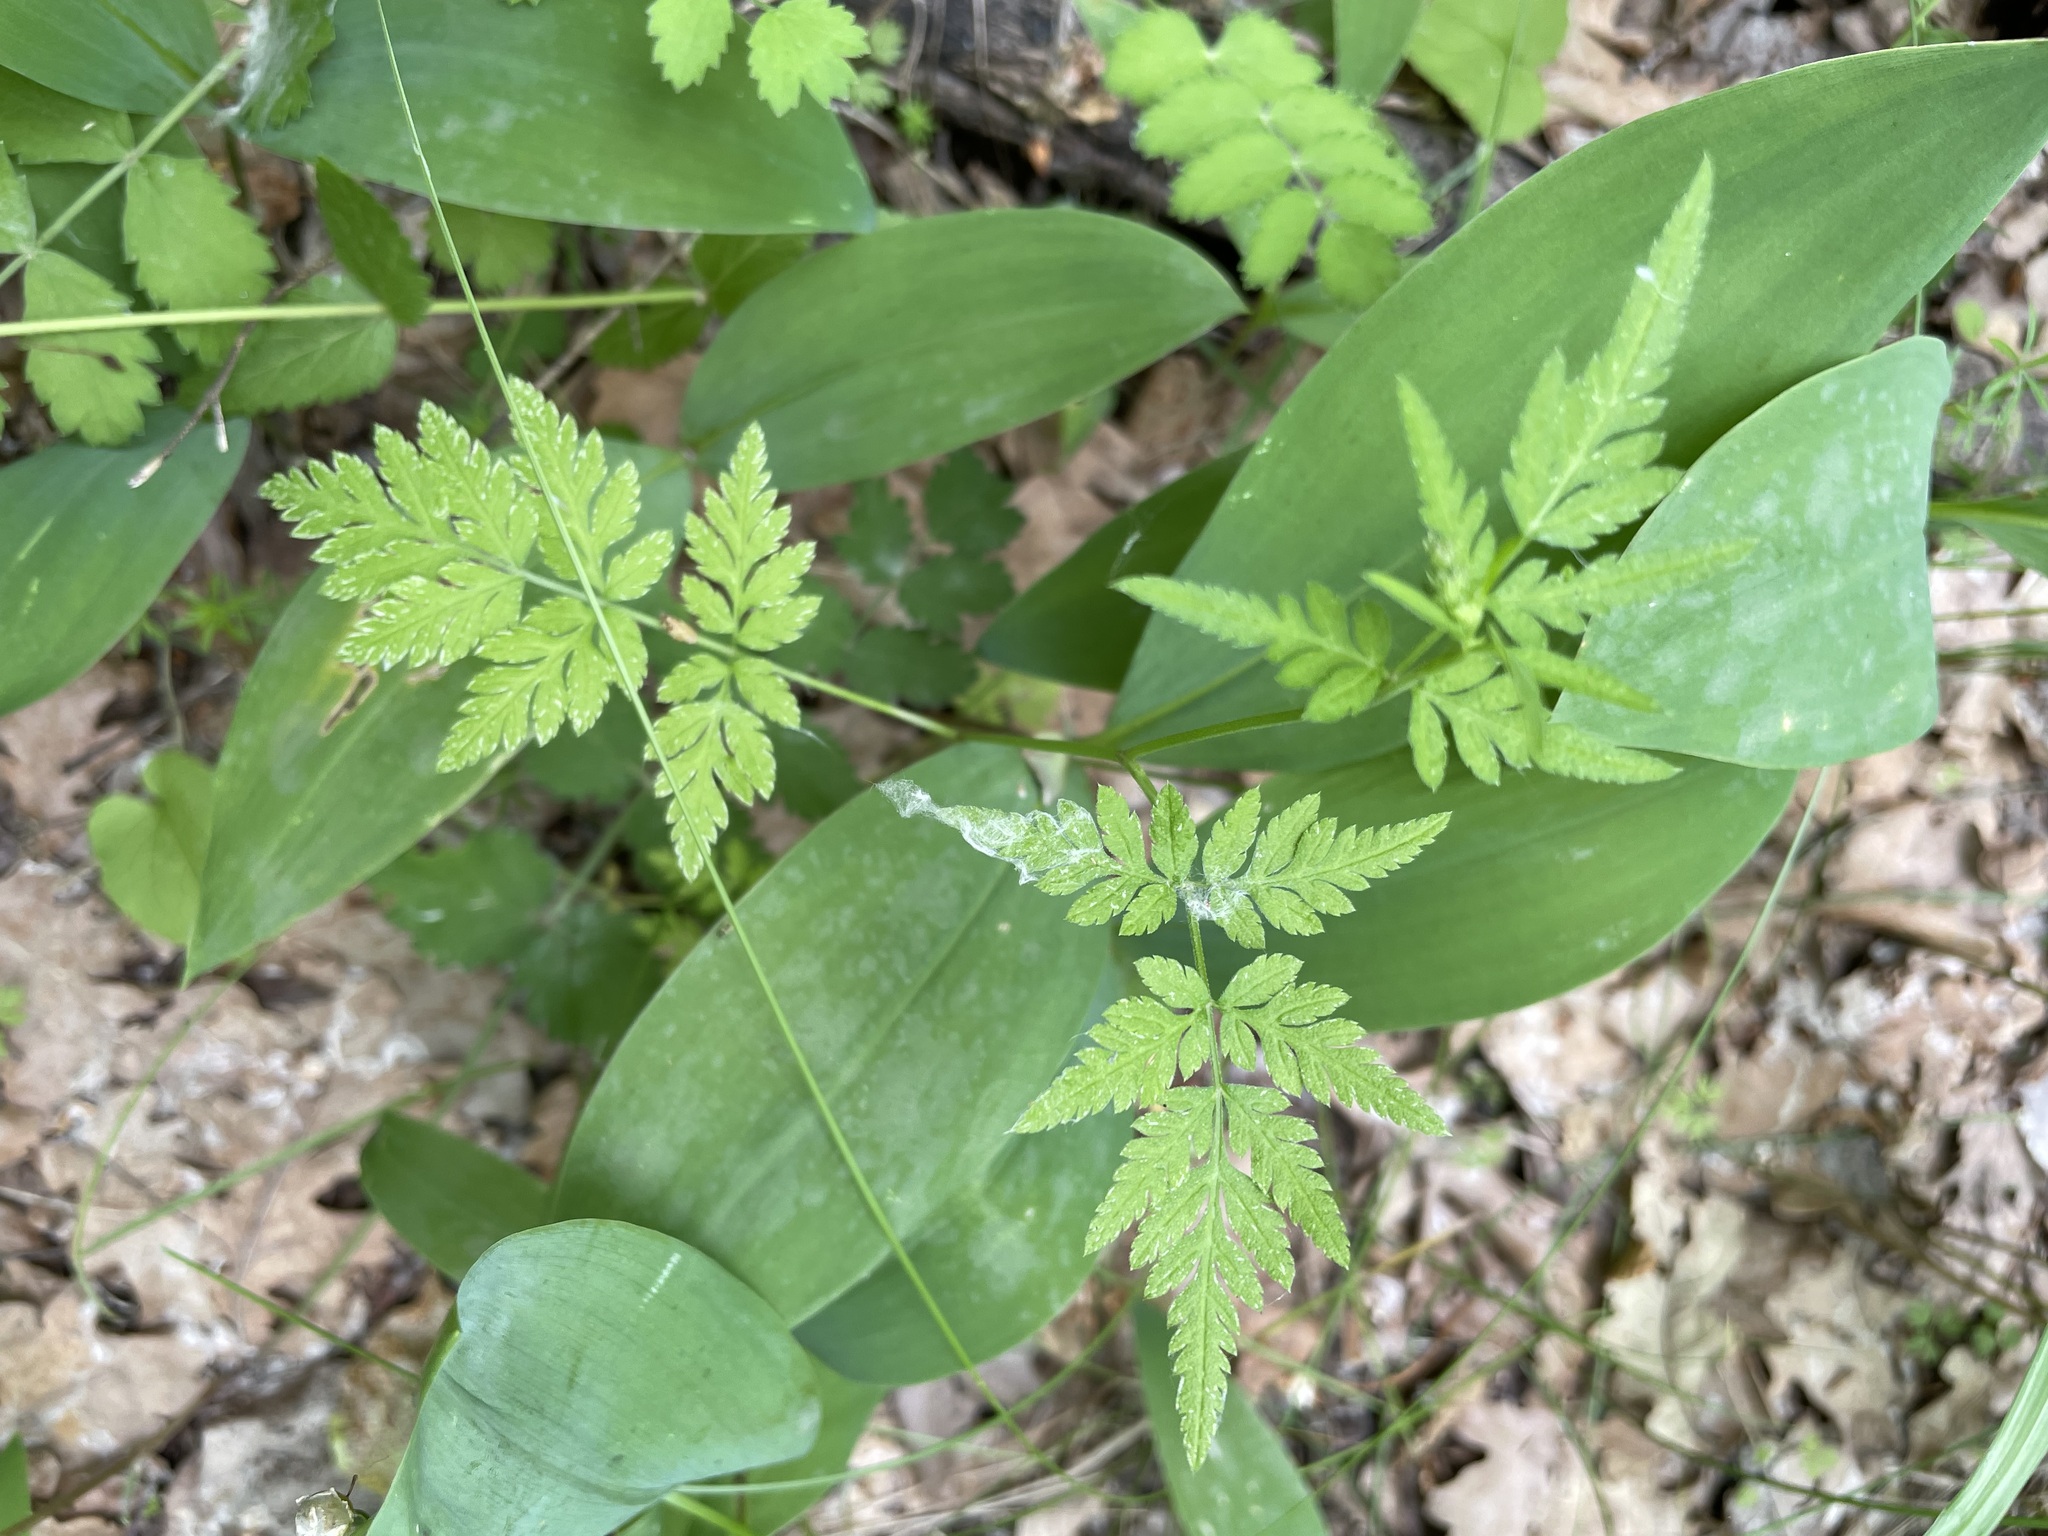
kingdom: Plantae
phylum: Tracheophyta
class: Magnoliopsida
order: Apiales
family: Apiaceae
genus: Torilis
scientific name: Torilis japonica
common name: Upright hedge-parsley
